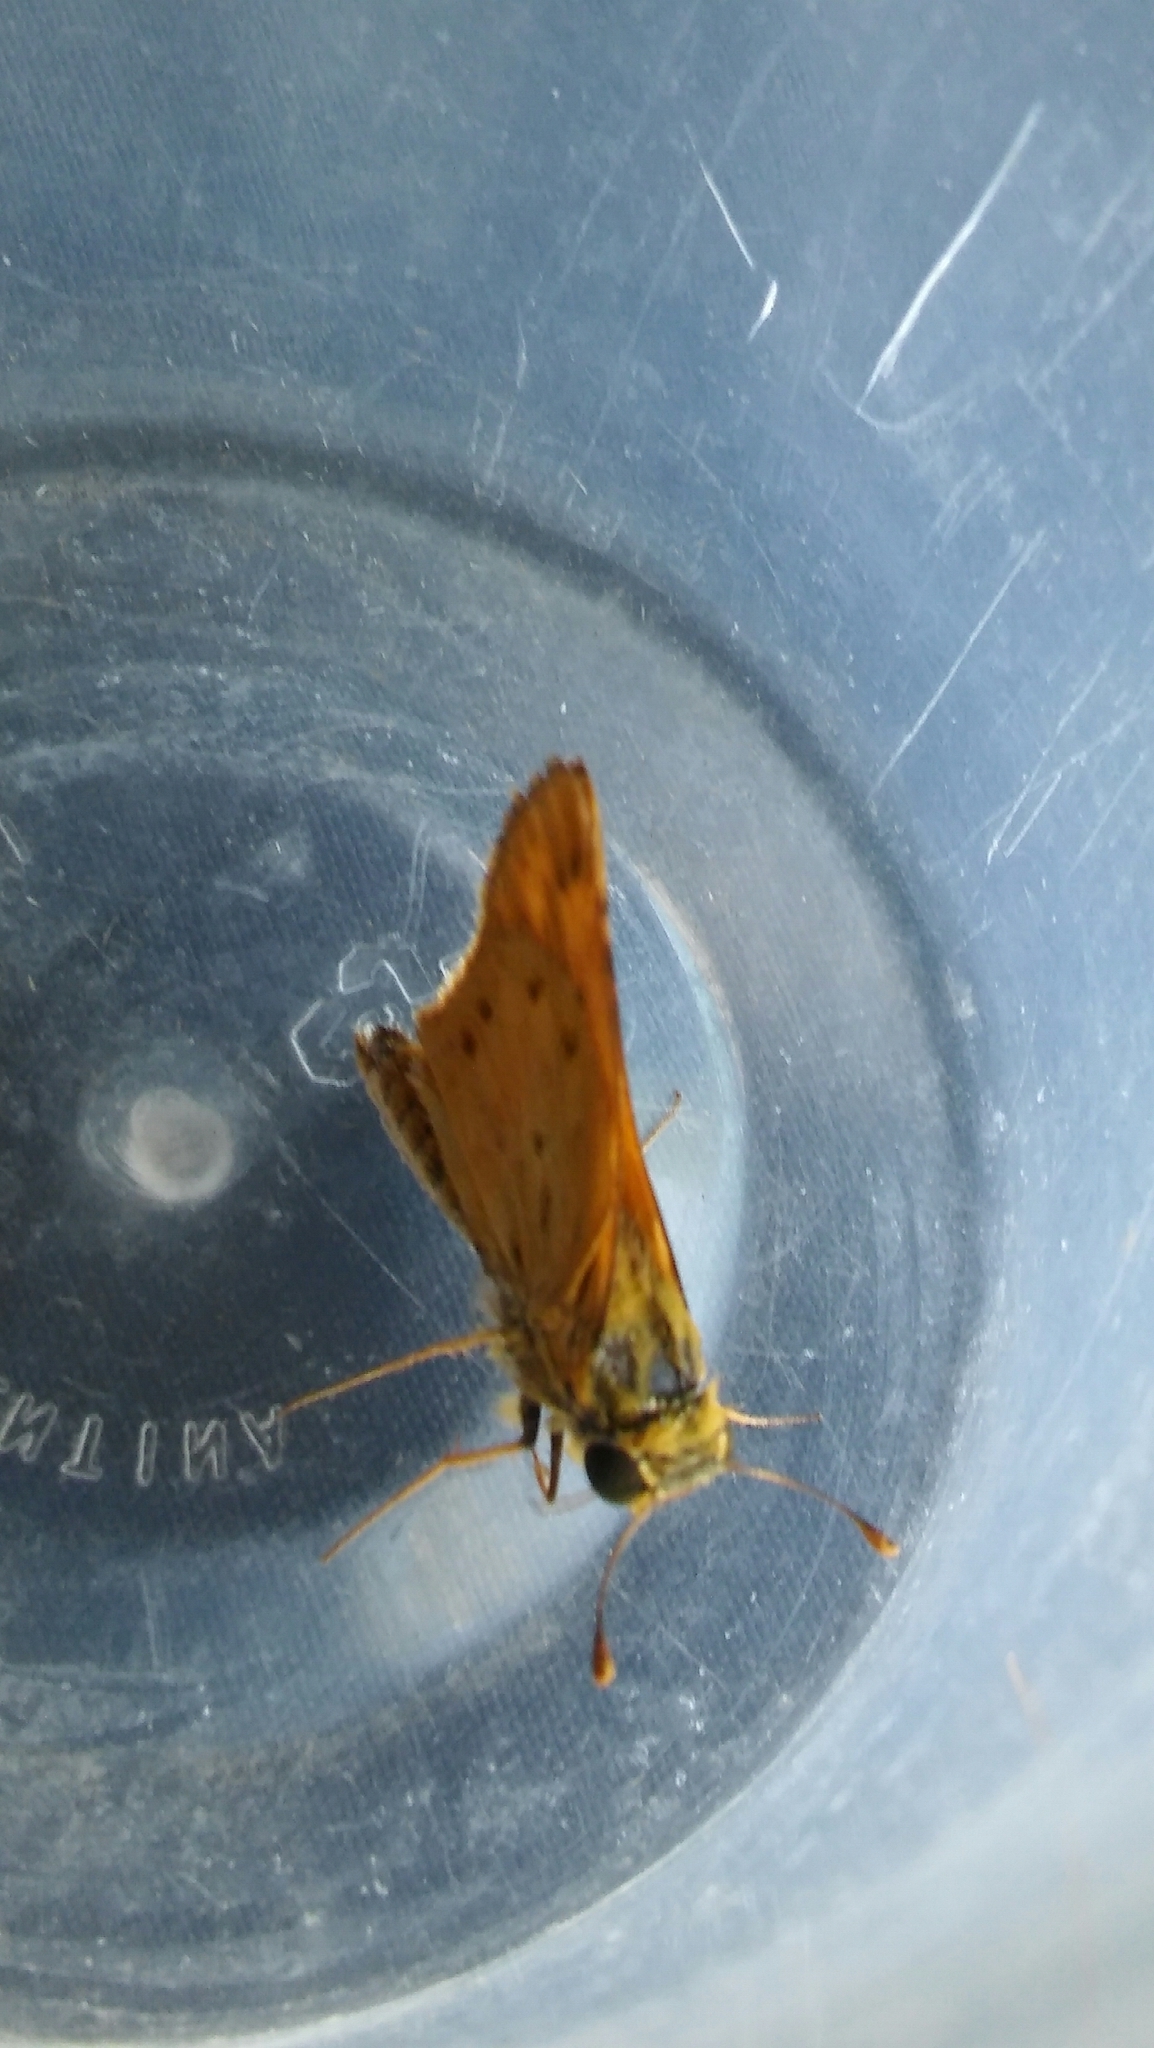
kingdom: Animalia
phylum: Arthropoda
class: Insecta
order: Lepidoptera
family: Hesperiidae
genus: Hylephila
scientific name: Hylephila phyleus
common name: Fiery skipper
